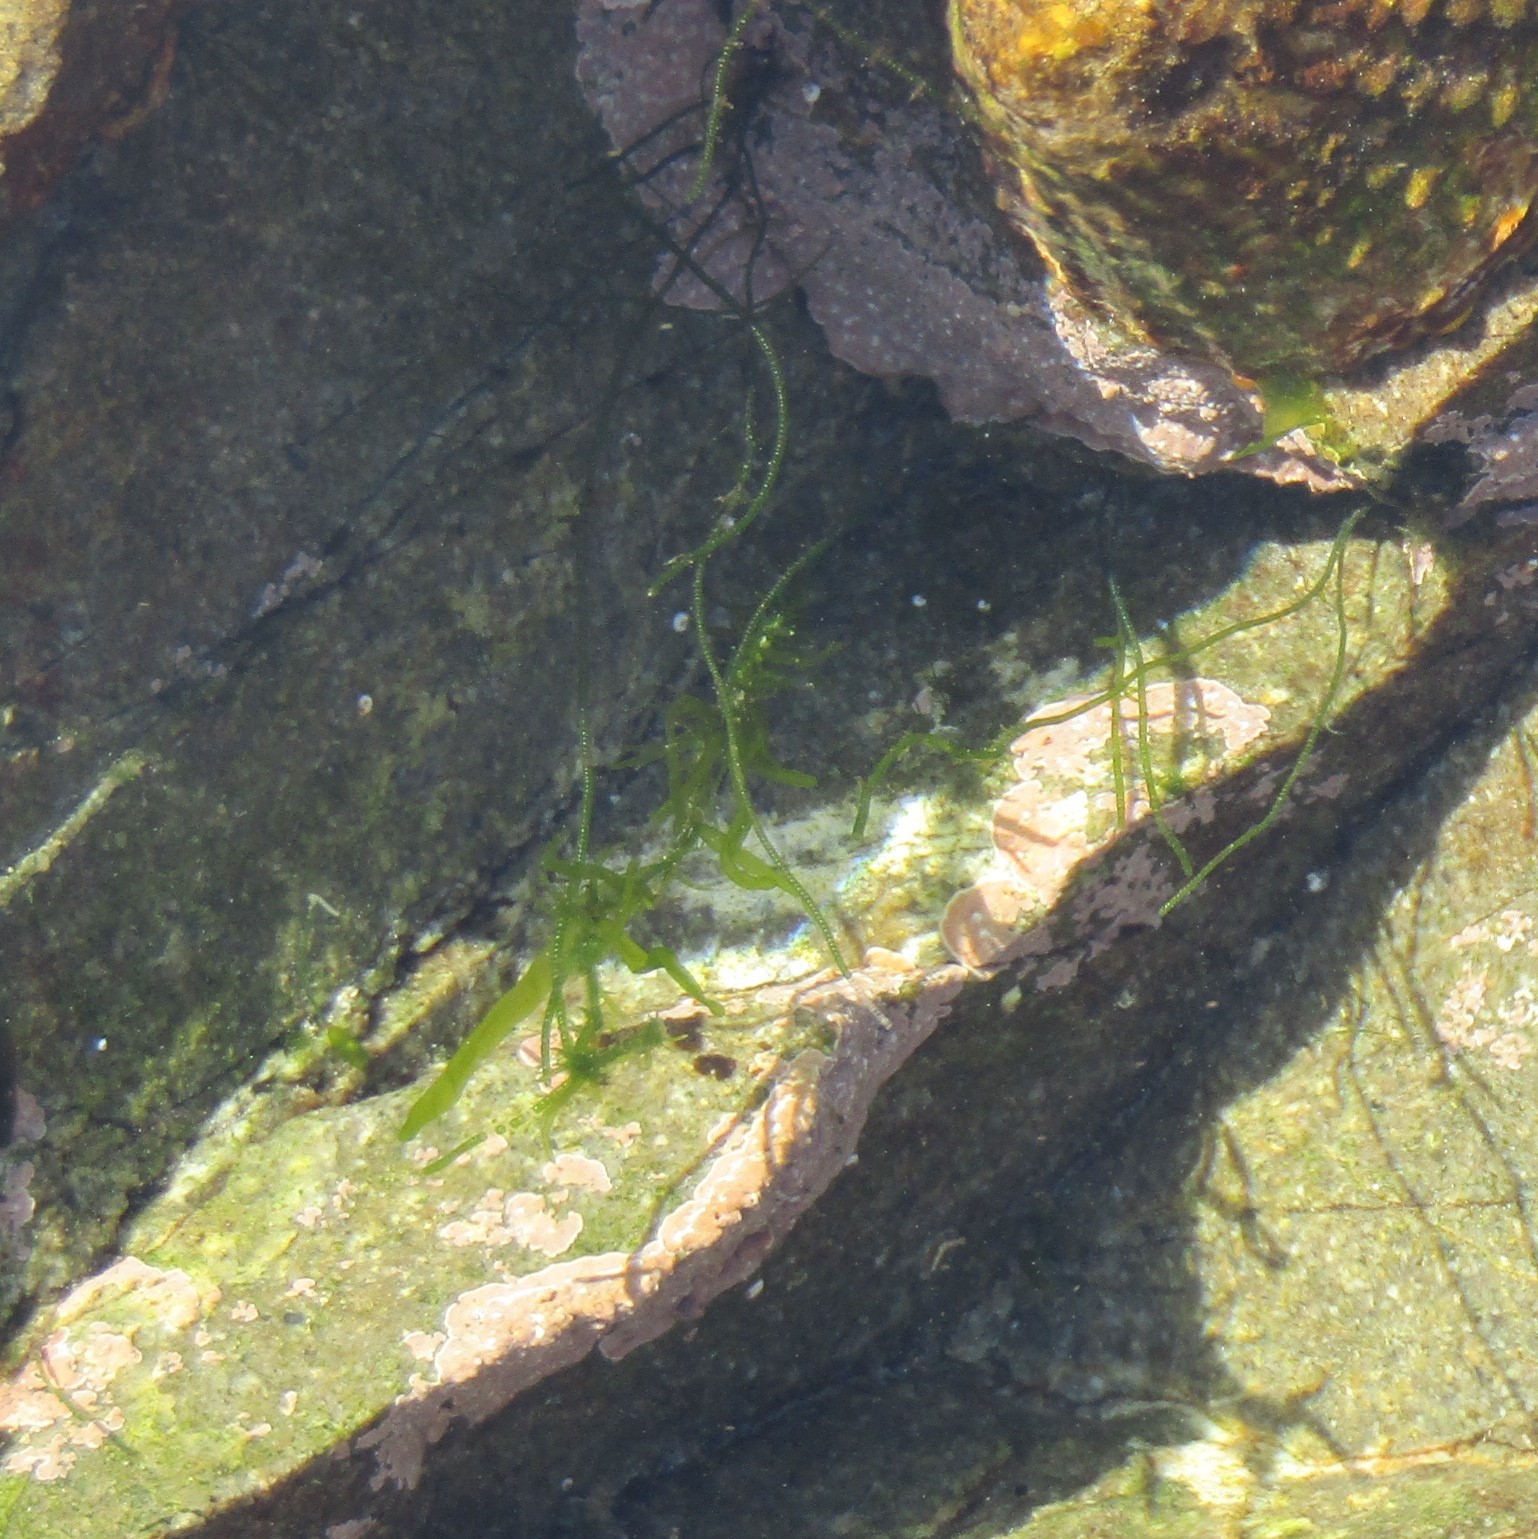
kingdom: Plantae
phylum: Chlorophyta
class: Ulvophyceae
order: Cladophorales
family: Cladophoraceae
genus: Chaetomorpha
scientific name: Chaetomorpha coliformis
